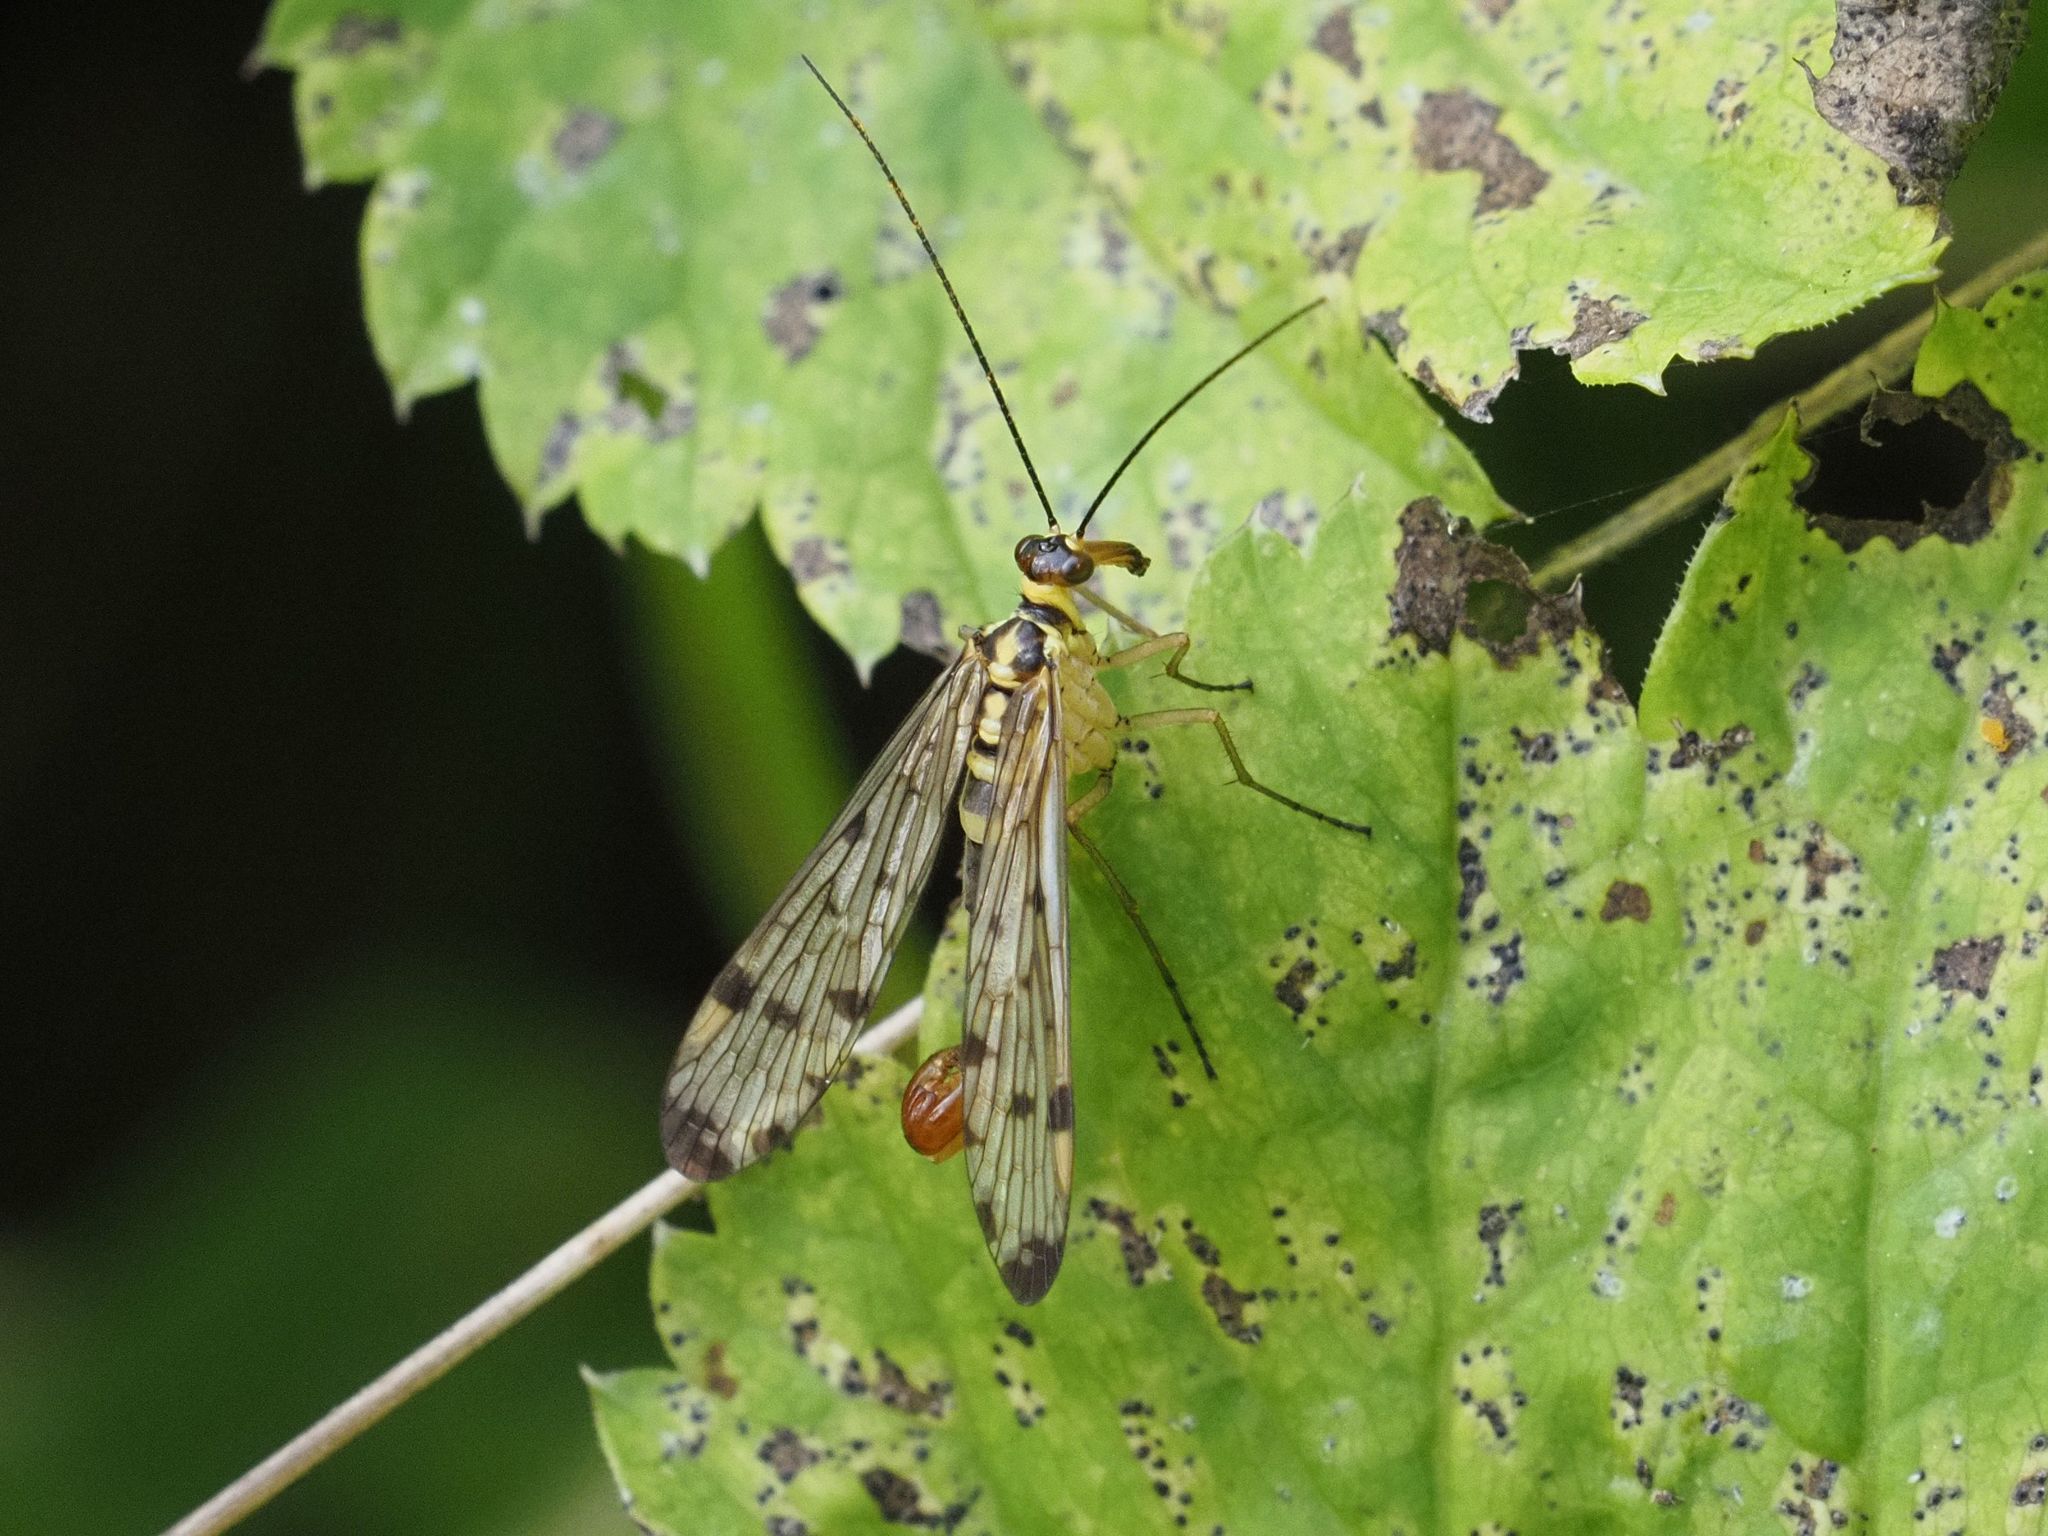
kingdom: Animalia
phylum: Arthropoda
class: Insecta
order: Mecoptera
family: Panorpidae
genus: Panorpa
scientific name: Panorpa germanica
